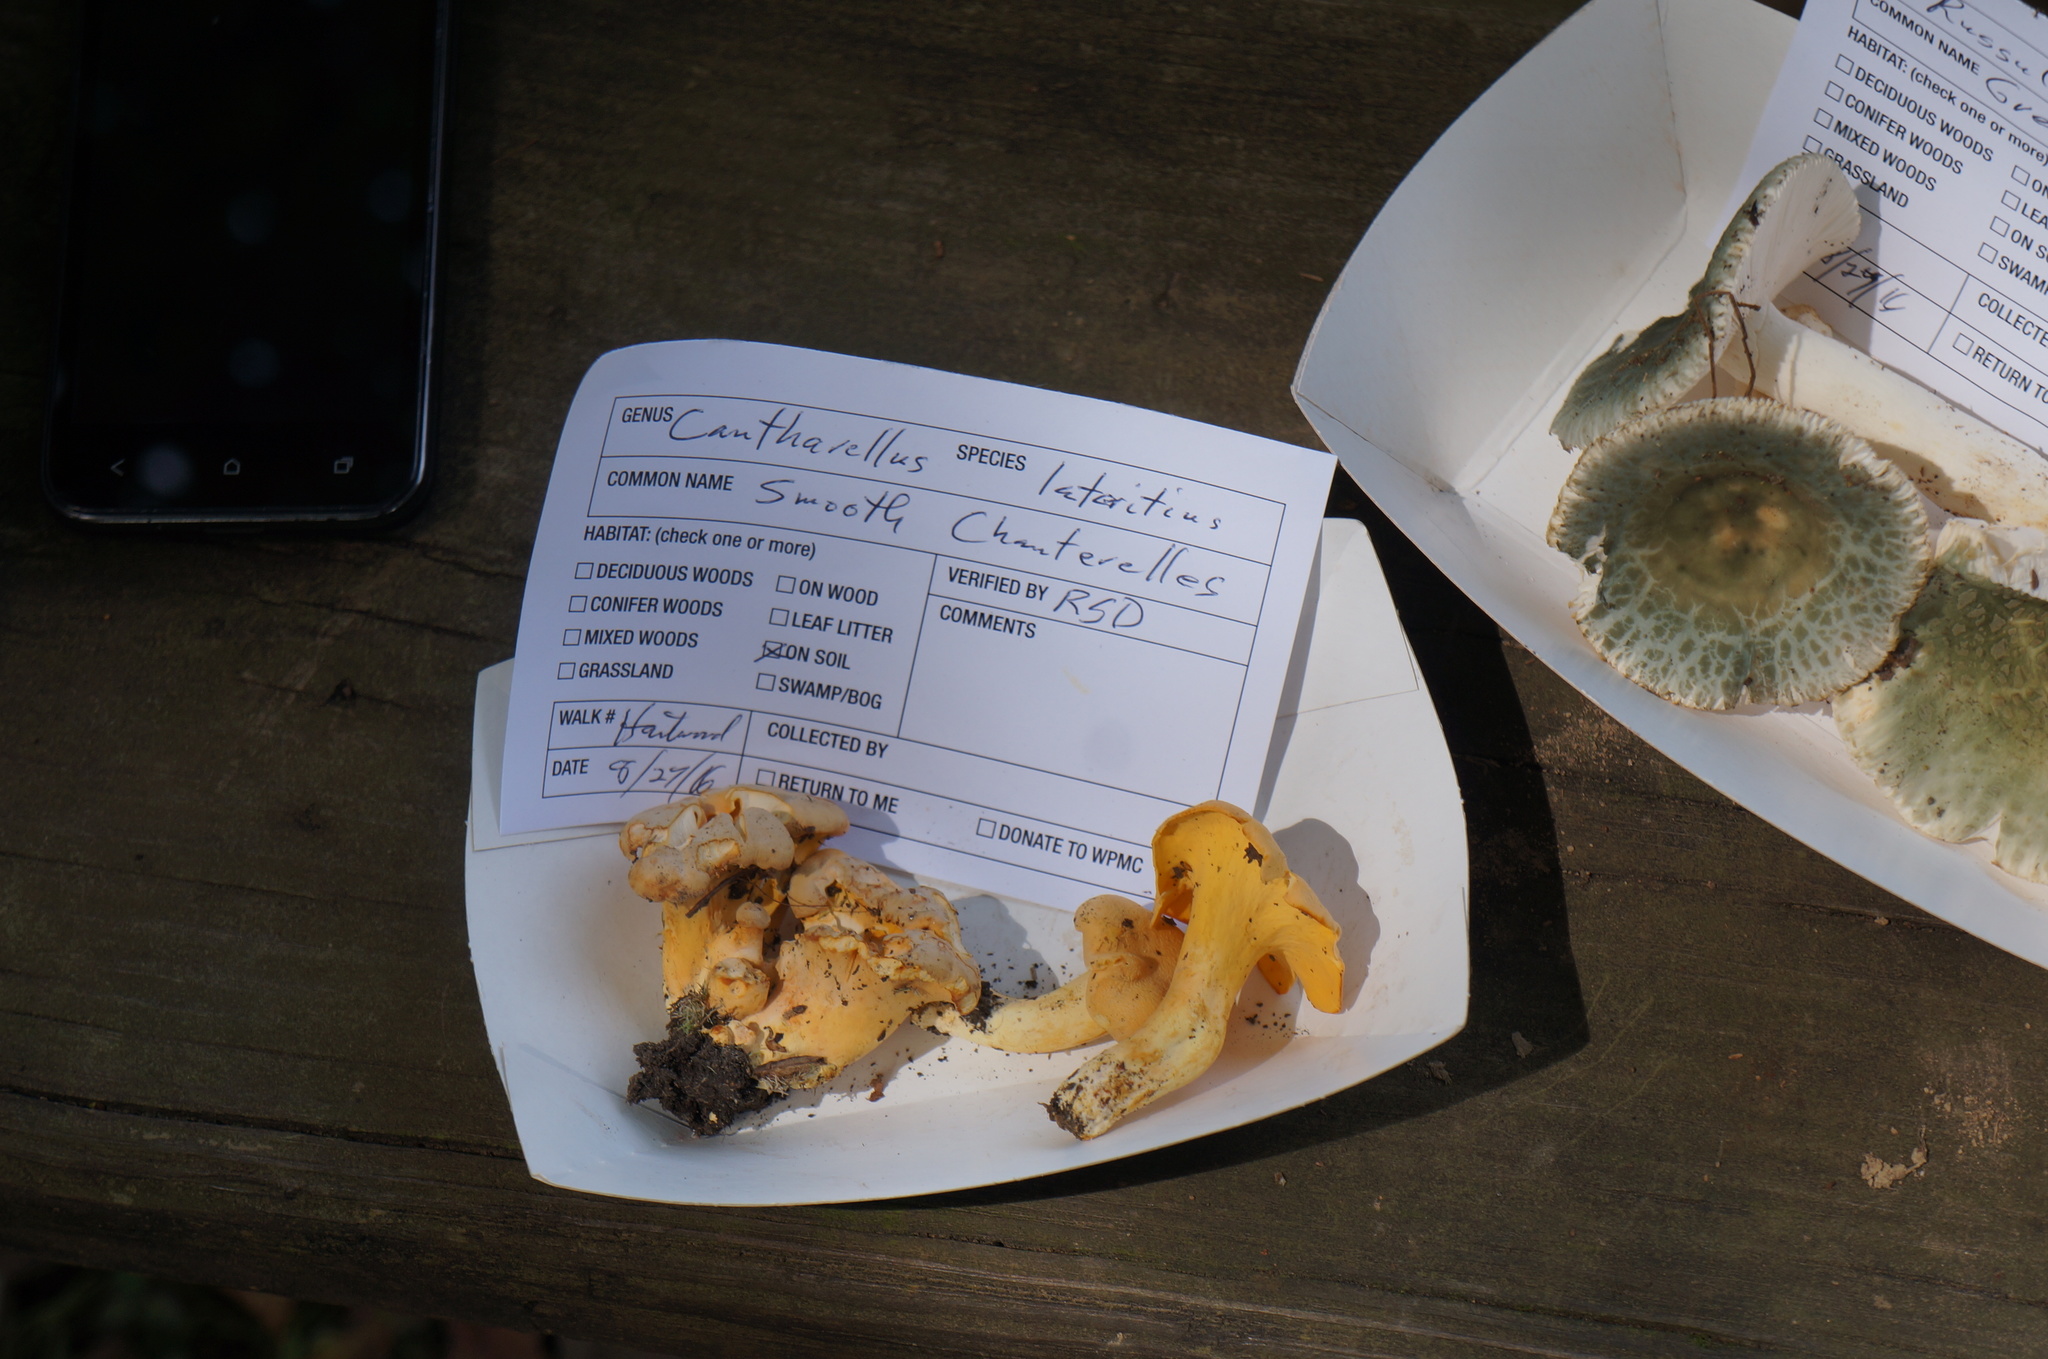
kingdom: Fungi
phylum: Basidiomycota
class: Agaricomycetes
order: Cantharellales
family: Hydnaceae
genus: Cantharellus
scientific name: Cantharellus lateritius
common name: Smooth chanterelle
